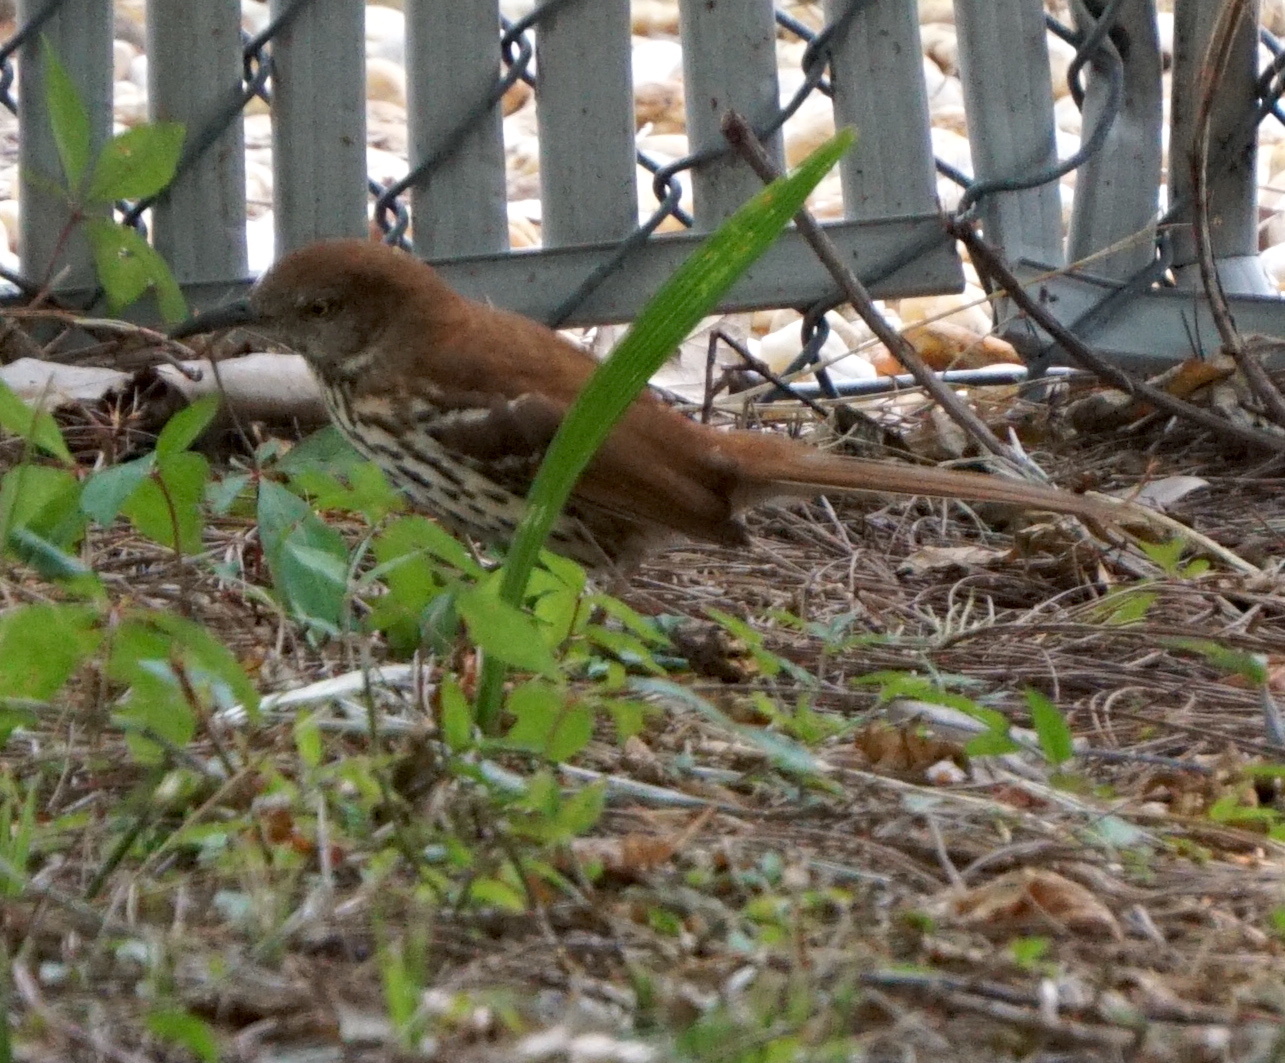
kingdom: Animalia
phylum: Chordata
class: Aves
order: Passeriformes
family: Mimidae
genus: Toxostoma
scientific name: Toxostoma rufum
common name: Brown thrasher
